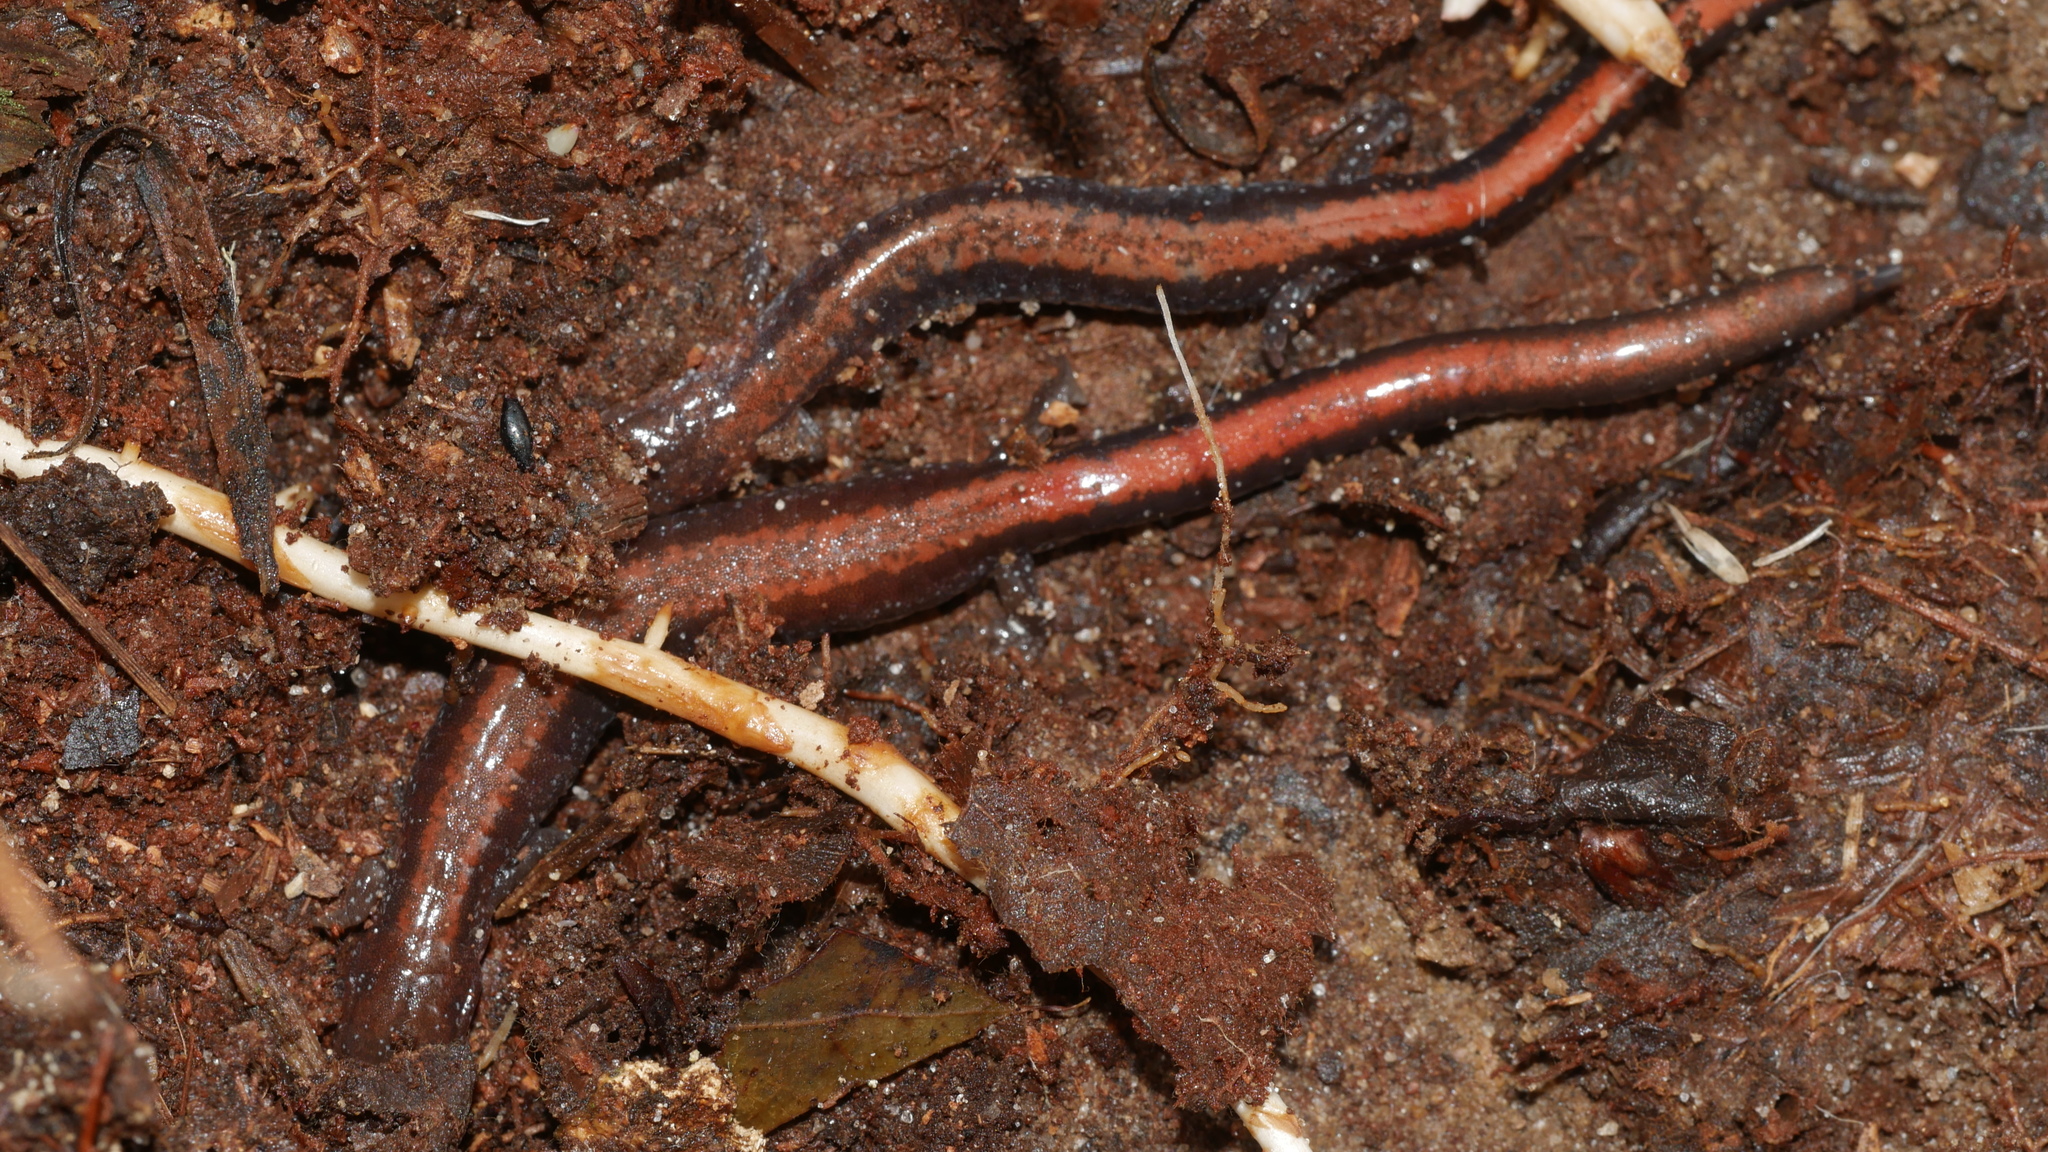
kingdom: Animalia
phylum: Chordata
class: Amphibia
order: Caudata
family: Plethodontidae
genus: Plethodon
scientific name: Plethodon cinereus
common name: Redback salamander
